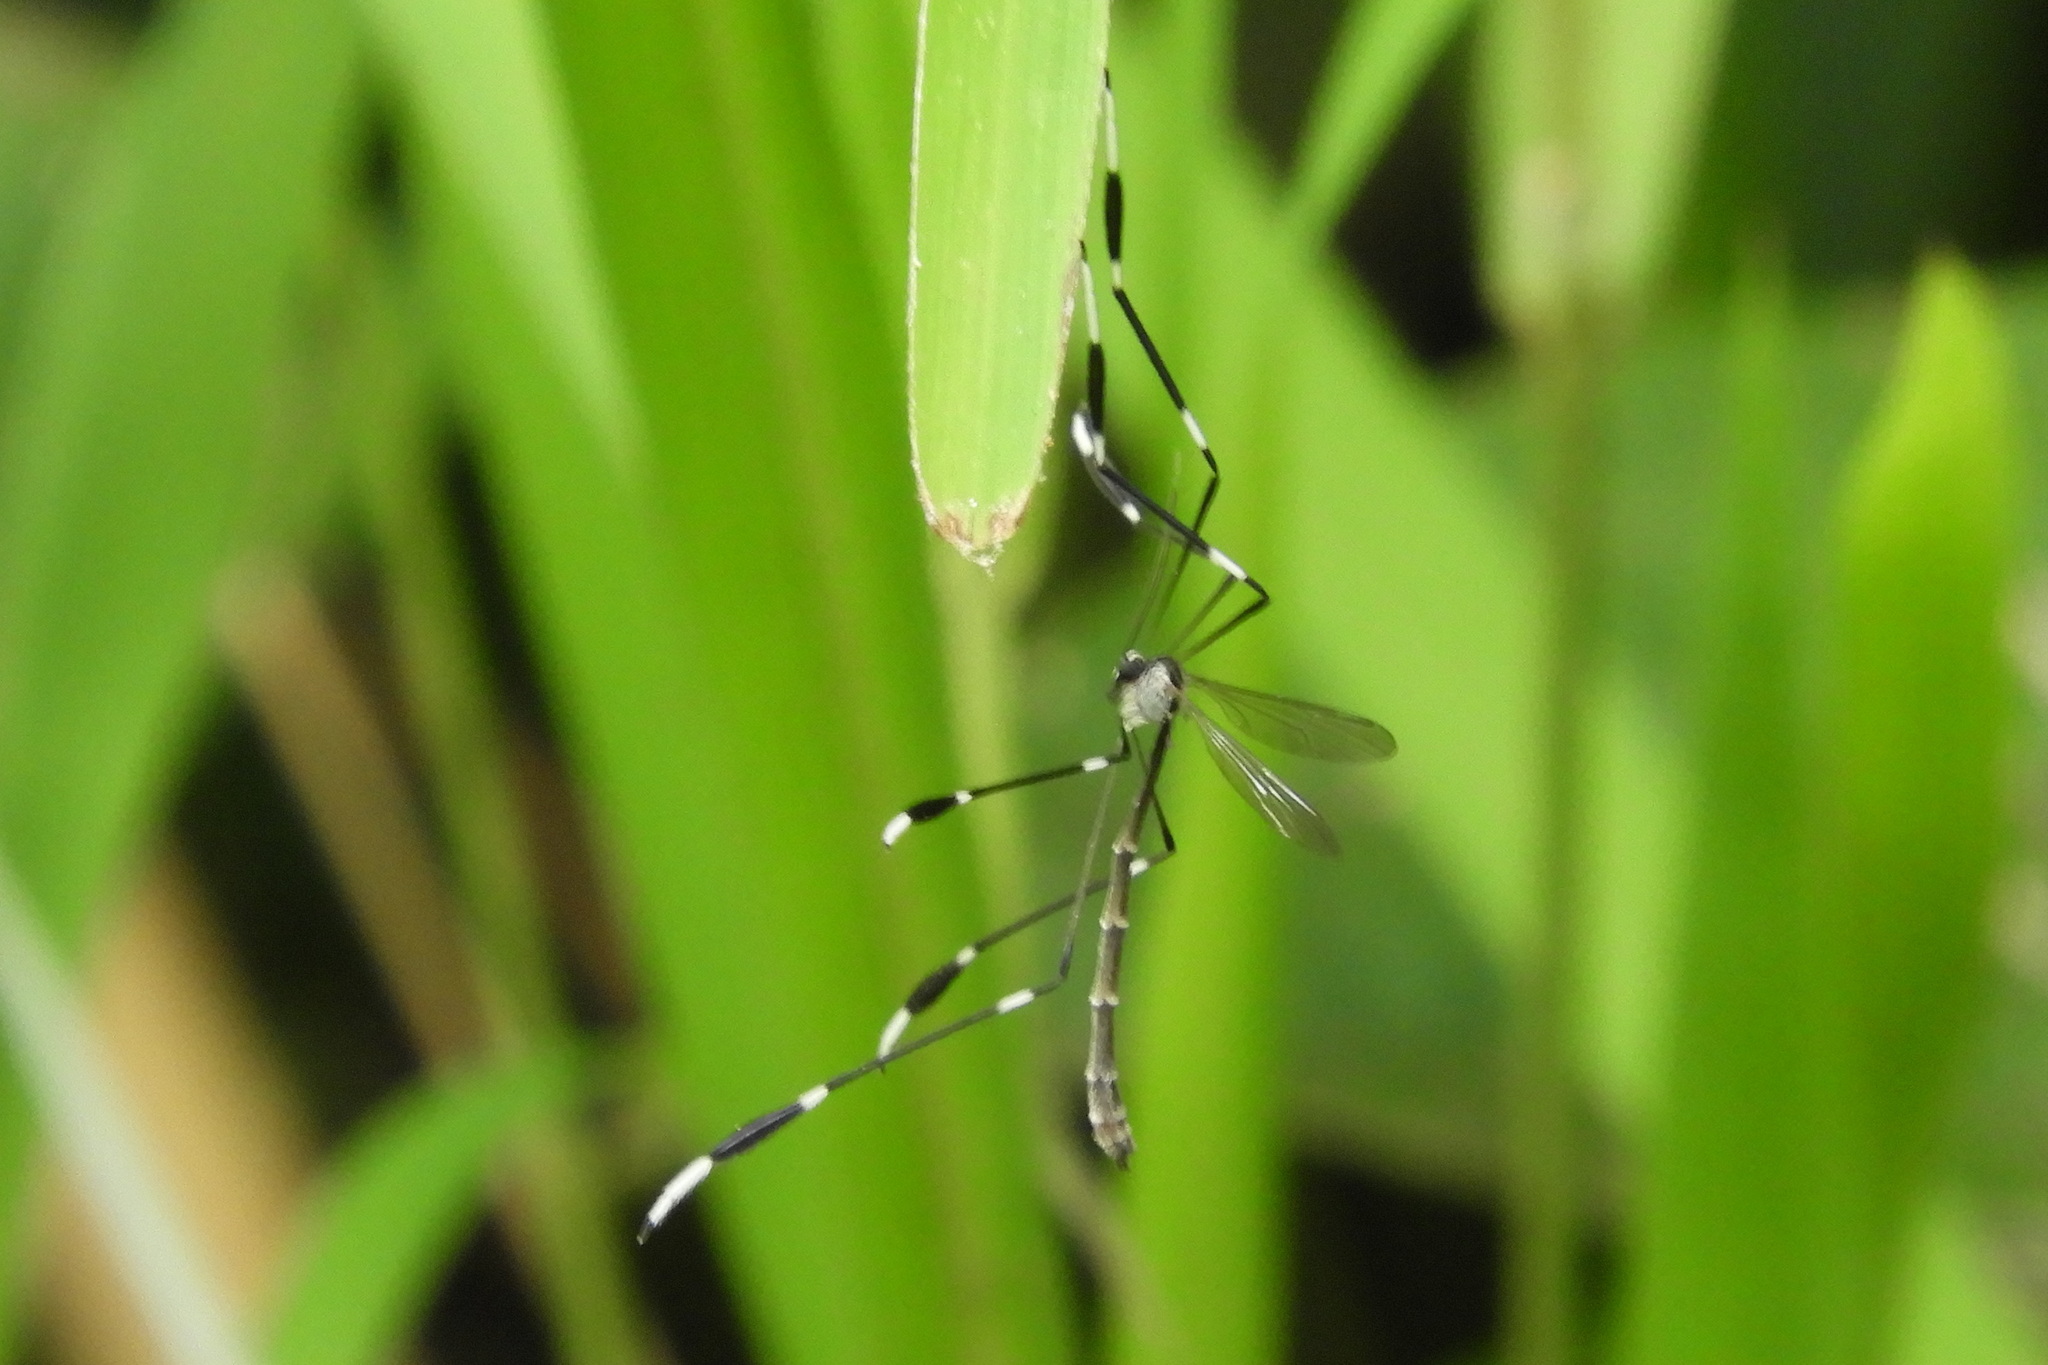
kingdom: Animalia
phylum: Arthropoda
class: Insecta
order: Diptera
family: Ptychopteridae
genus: Bittacomorpha
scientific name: Bittacomorpha clavipes
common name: Eastern phantom crane fly
